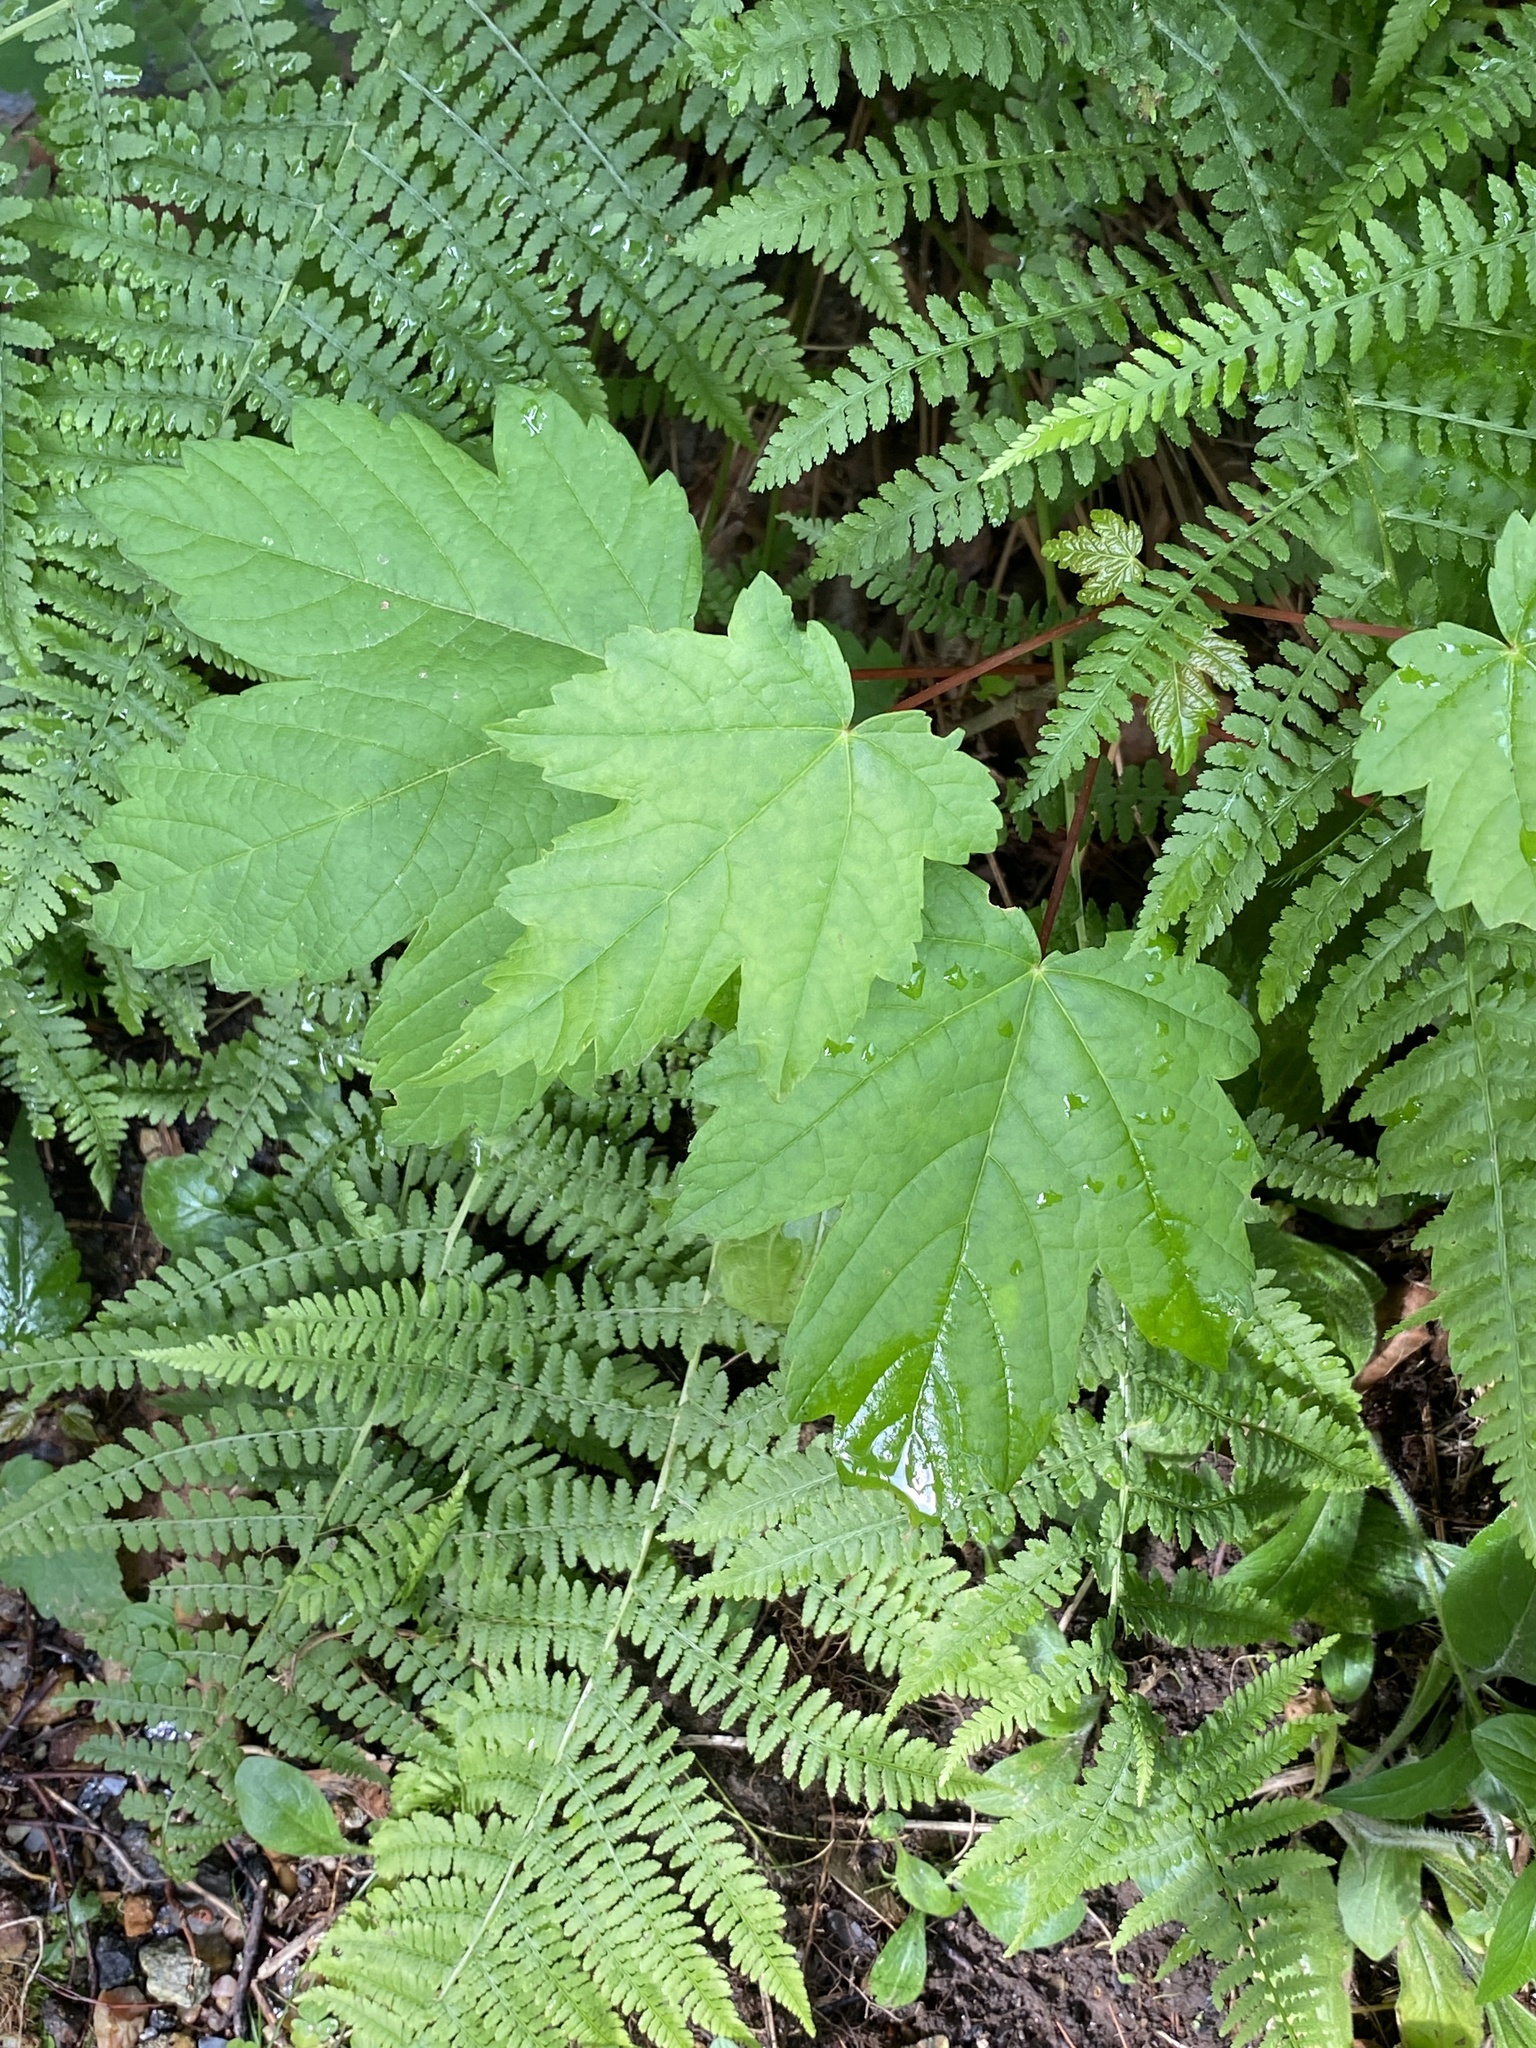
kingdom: Plantae
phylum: Tracheophyta
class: Magnoliopsida
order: Sapindales
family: Sapindaceae
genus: Acer
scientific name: Acer pseudoplatanus
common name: Sycamore
